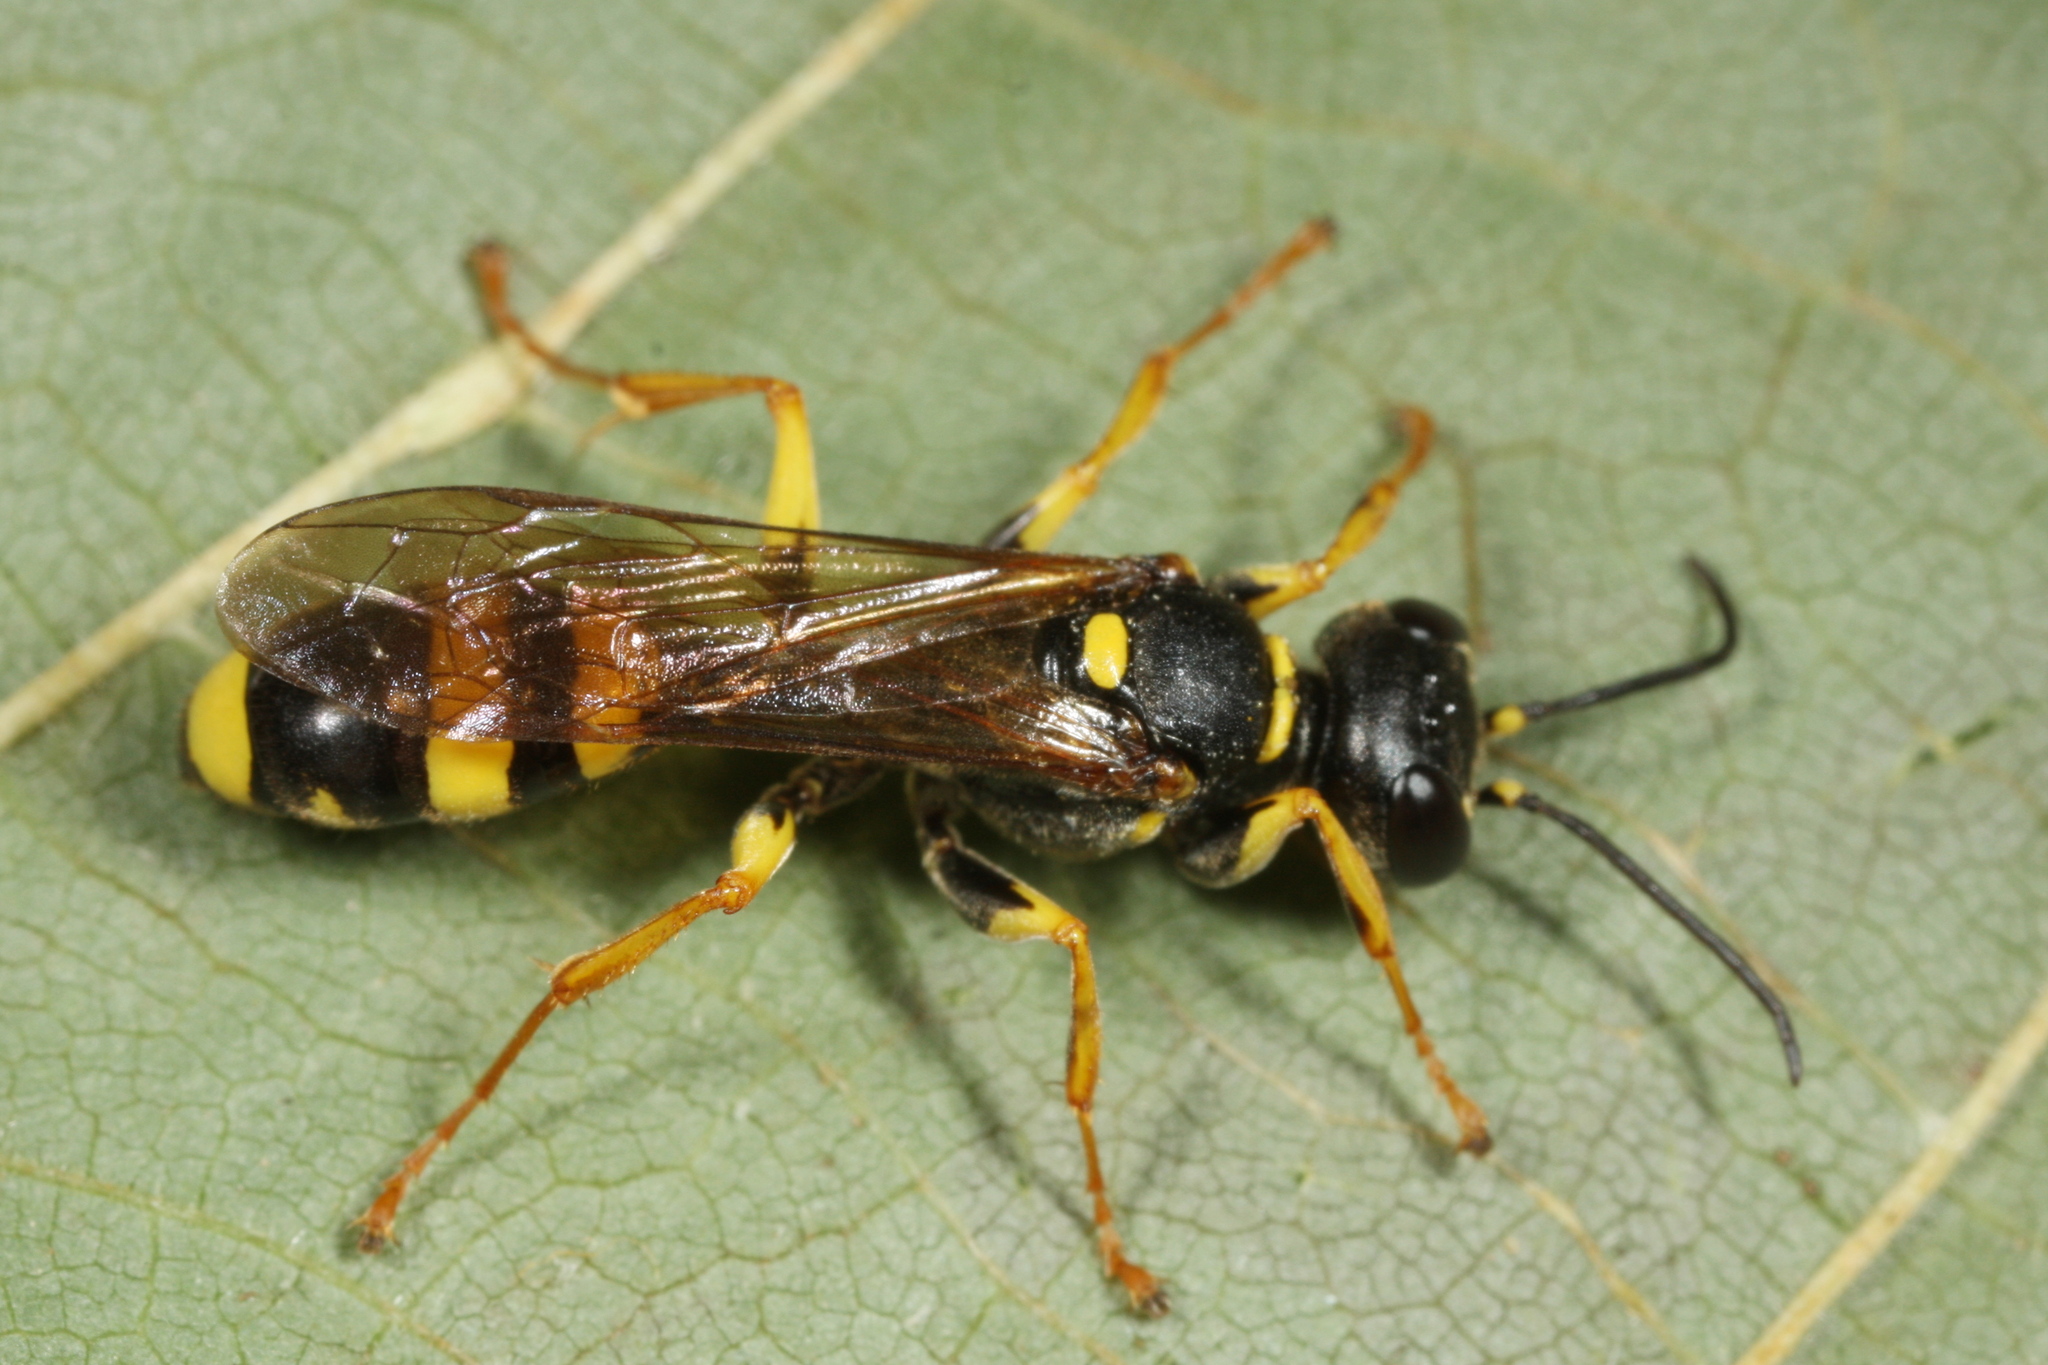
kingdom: Animalia
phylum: Arthropoda
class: Insecta
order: Hymenoptera
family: Crabronidae
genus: Mellinus
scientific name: Mellinus arvensis
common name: Field digger wasp
